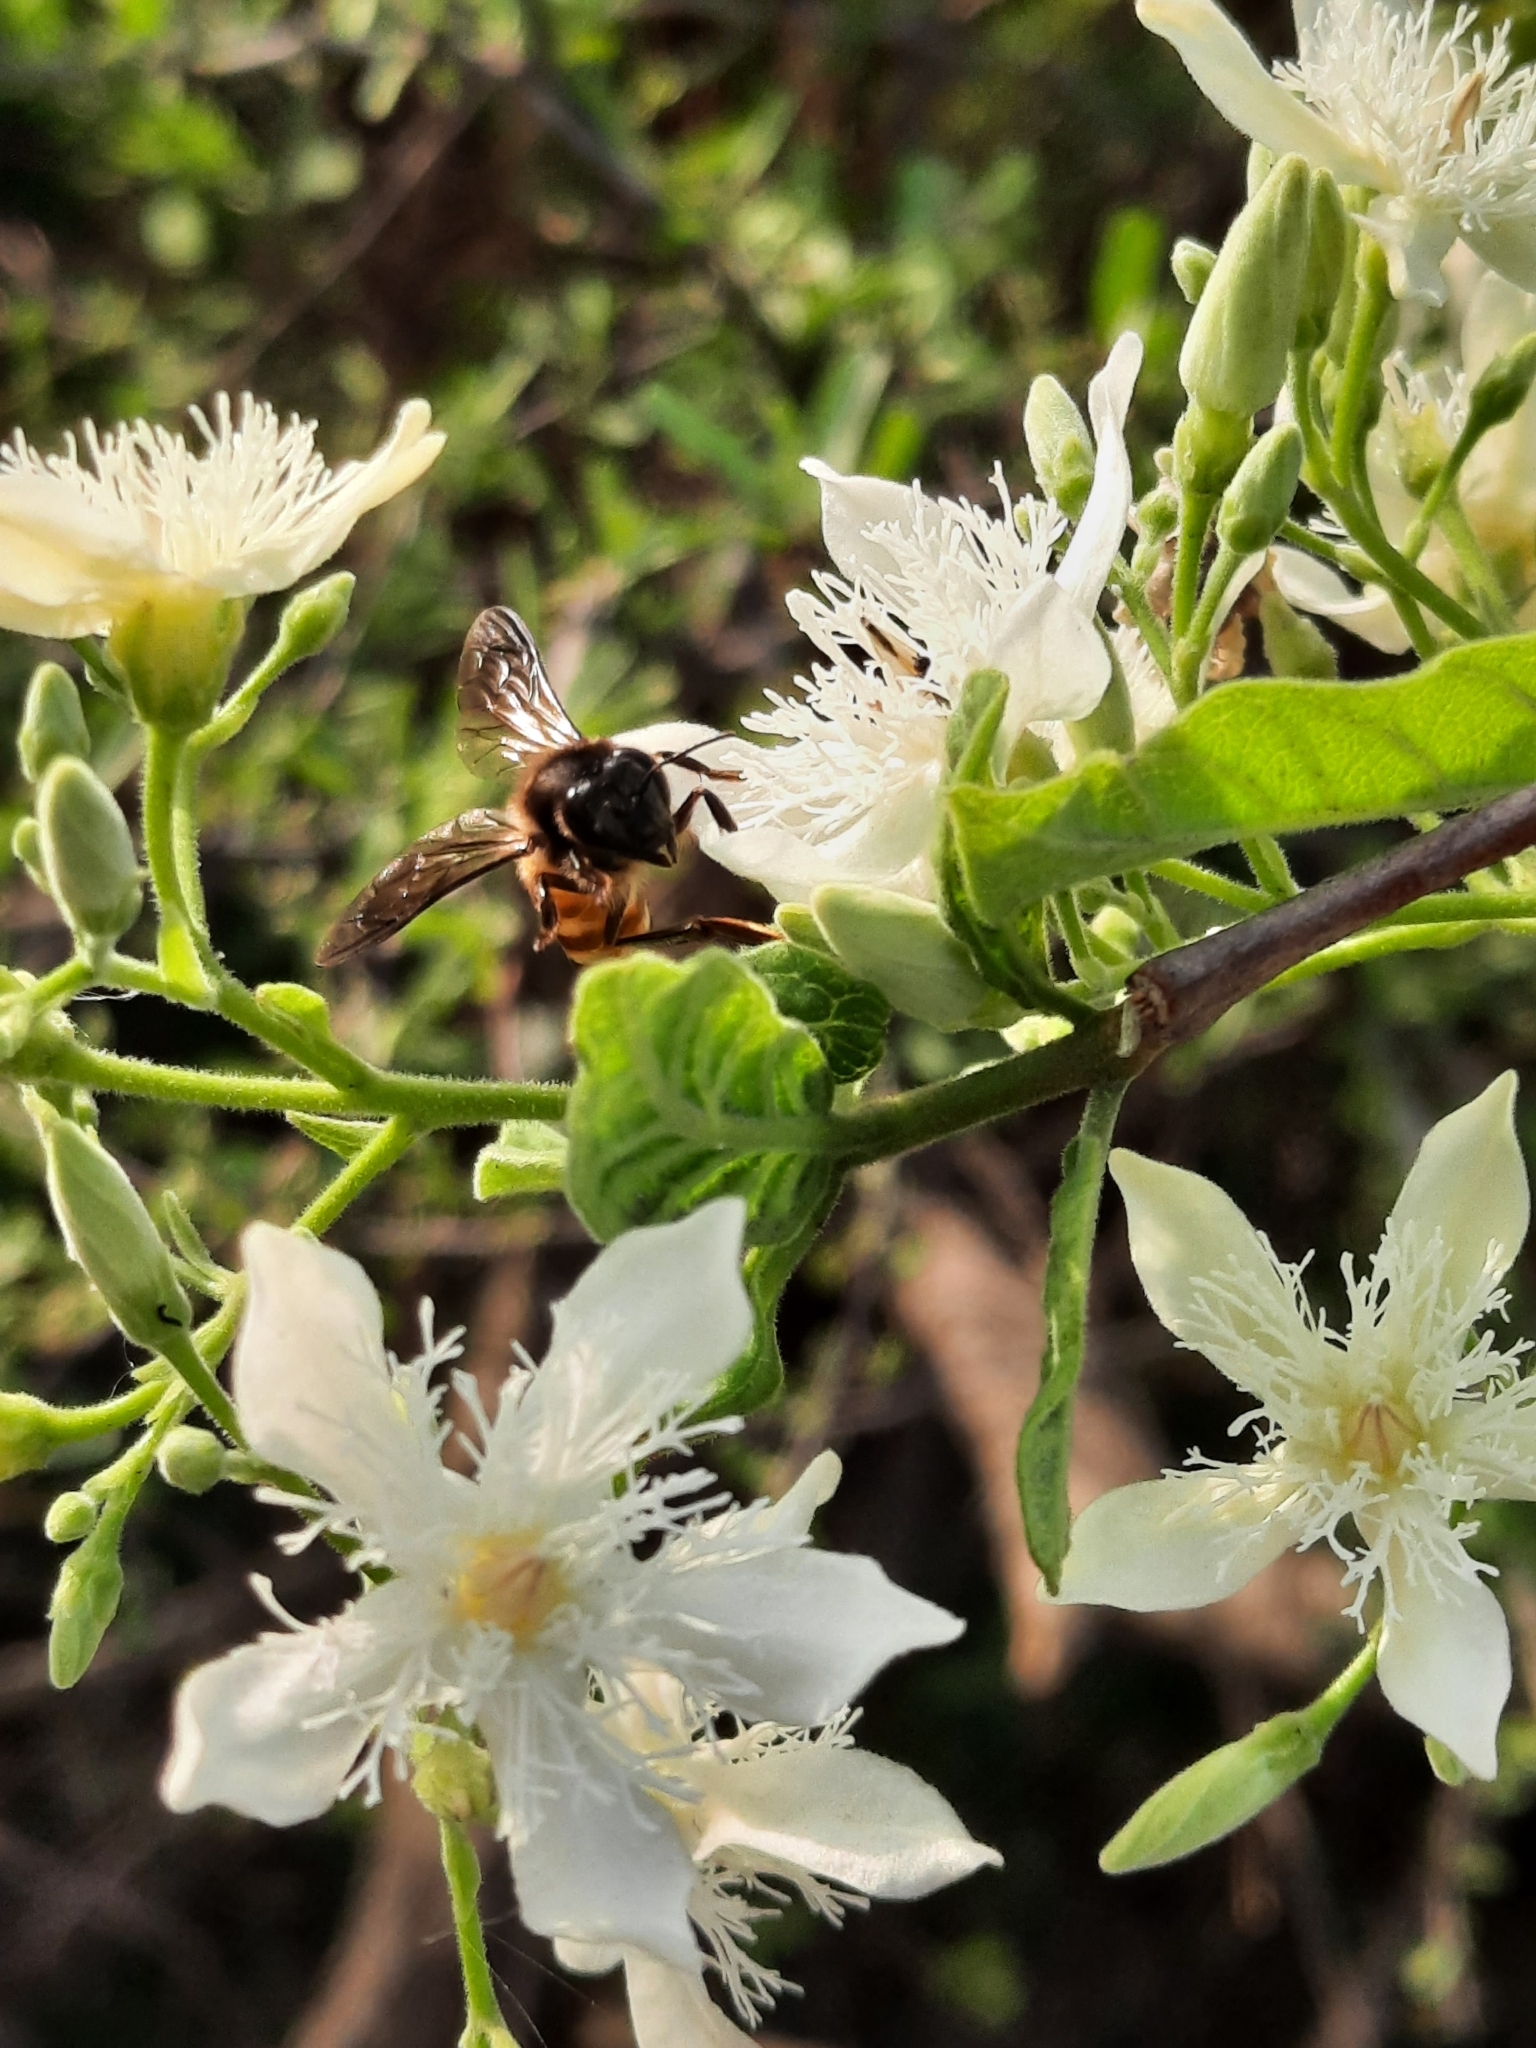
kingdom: Animalia
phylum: Arthropoda
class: Insecta
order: Hymenoptera
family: Apidae
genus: Apis
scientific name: Apis dorsata
